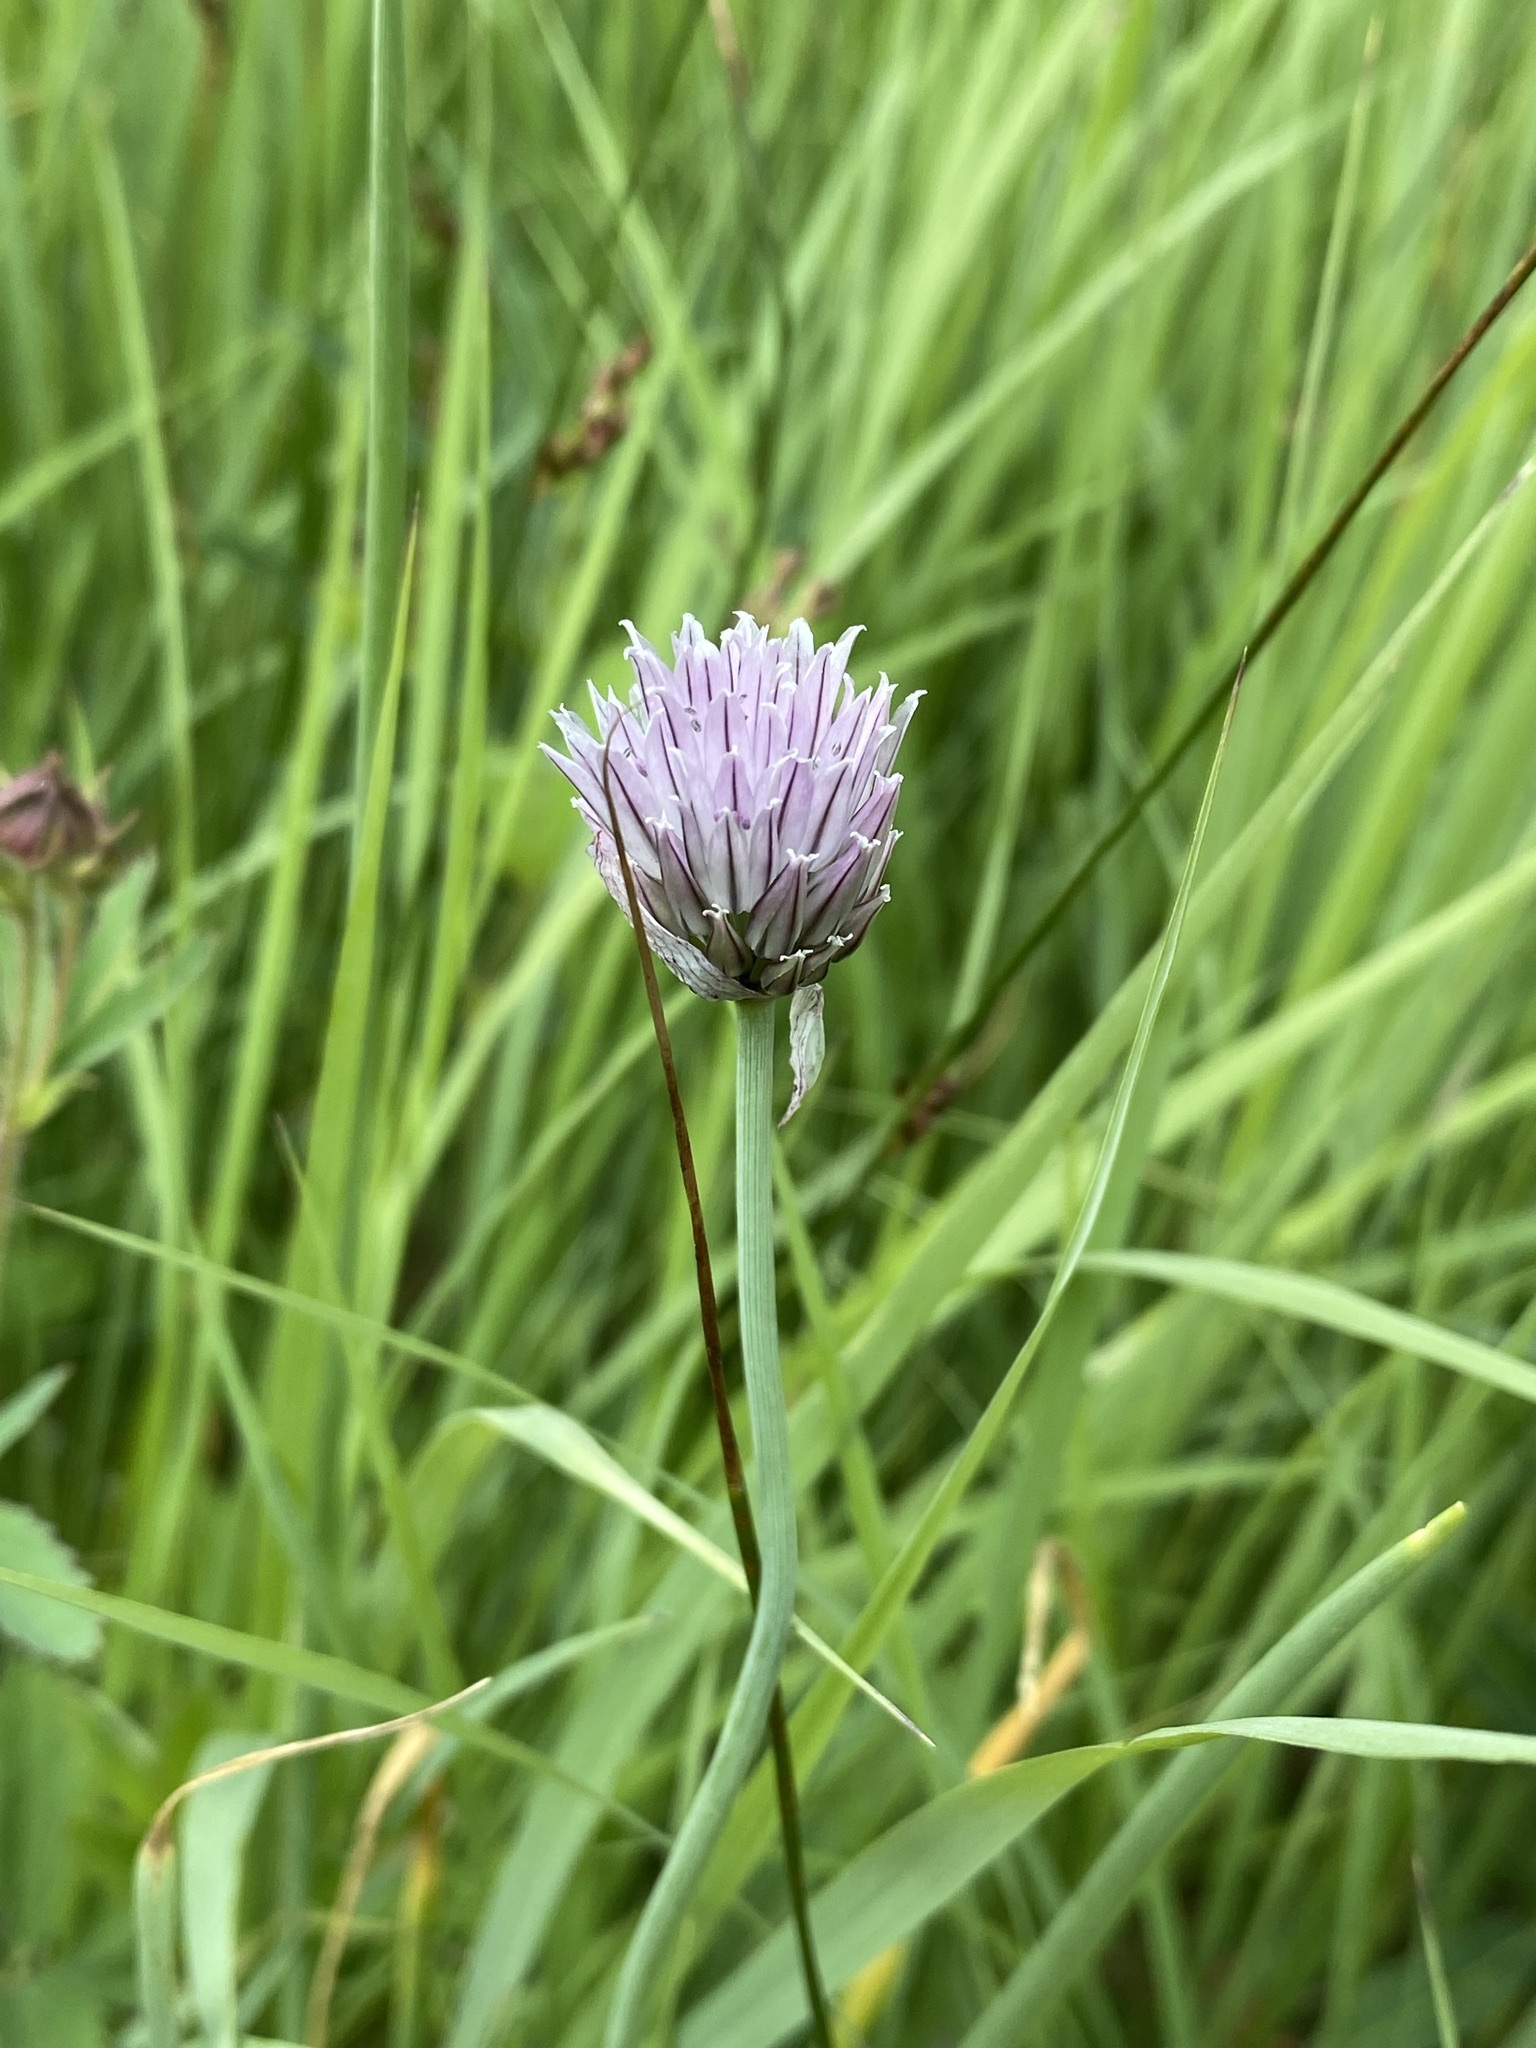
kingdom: Plantae
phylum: Tracheophyta
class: Liliopsida
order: Asparagales
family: Amaryllidaceae
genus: Allium
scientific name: Allium schoenoprasum
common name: Chives
